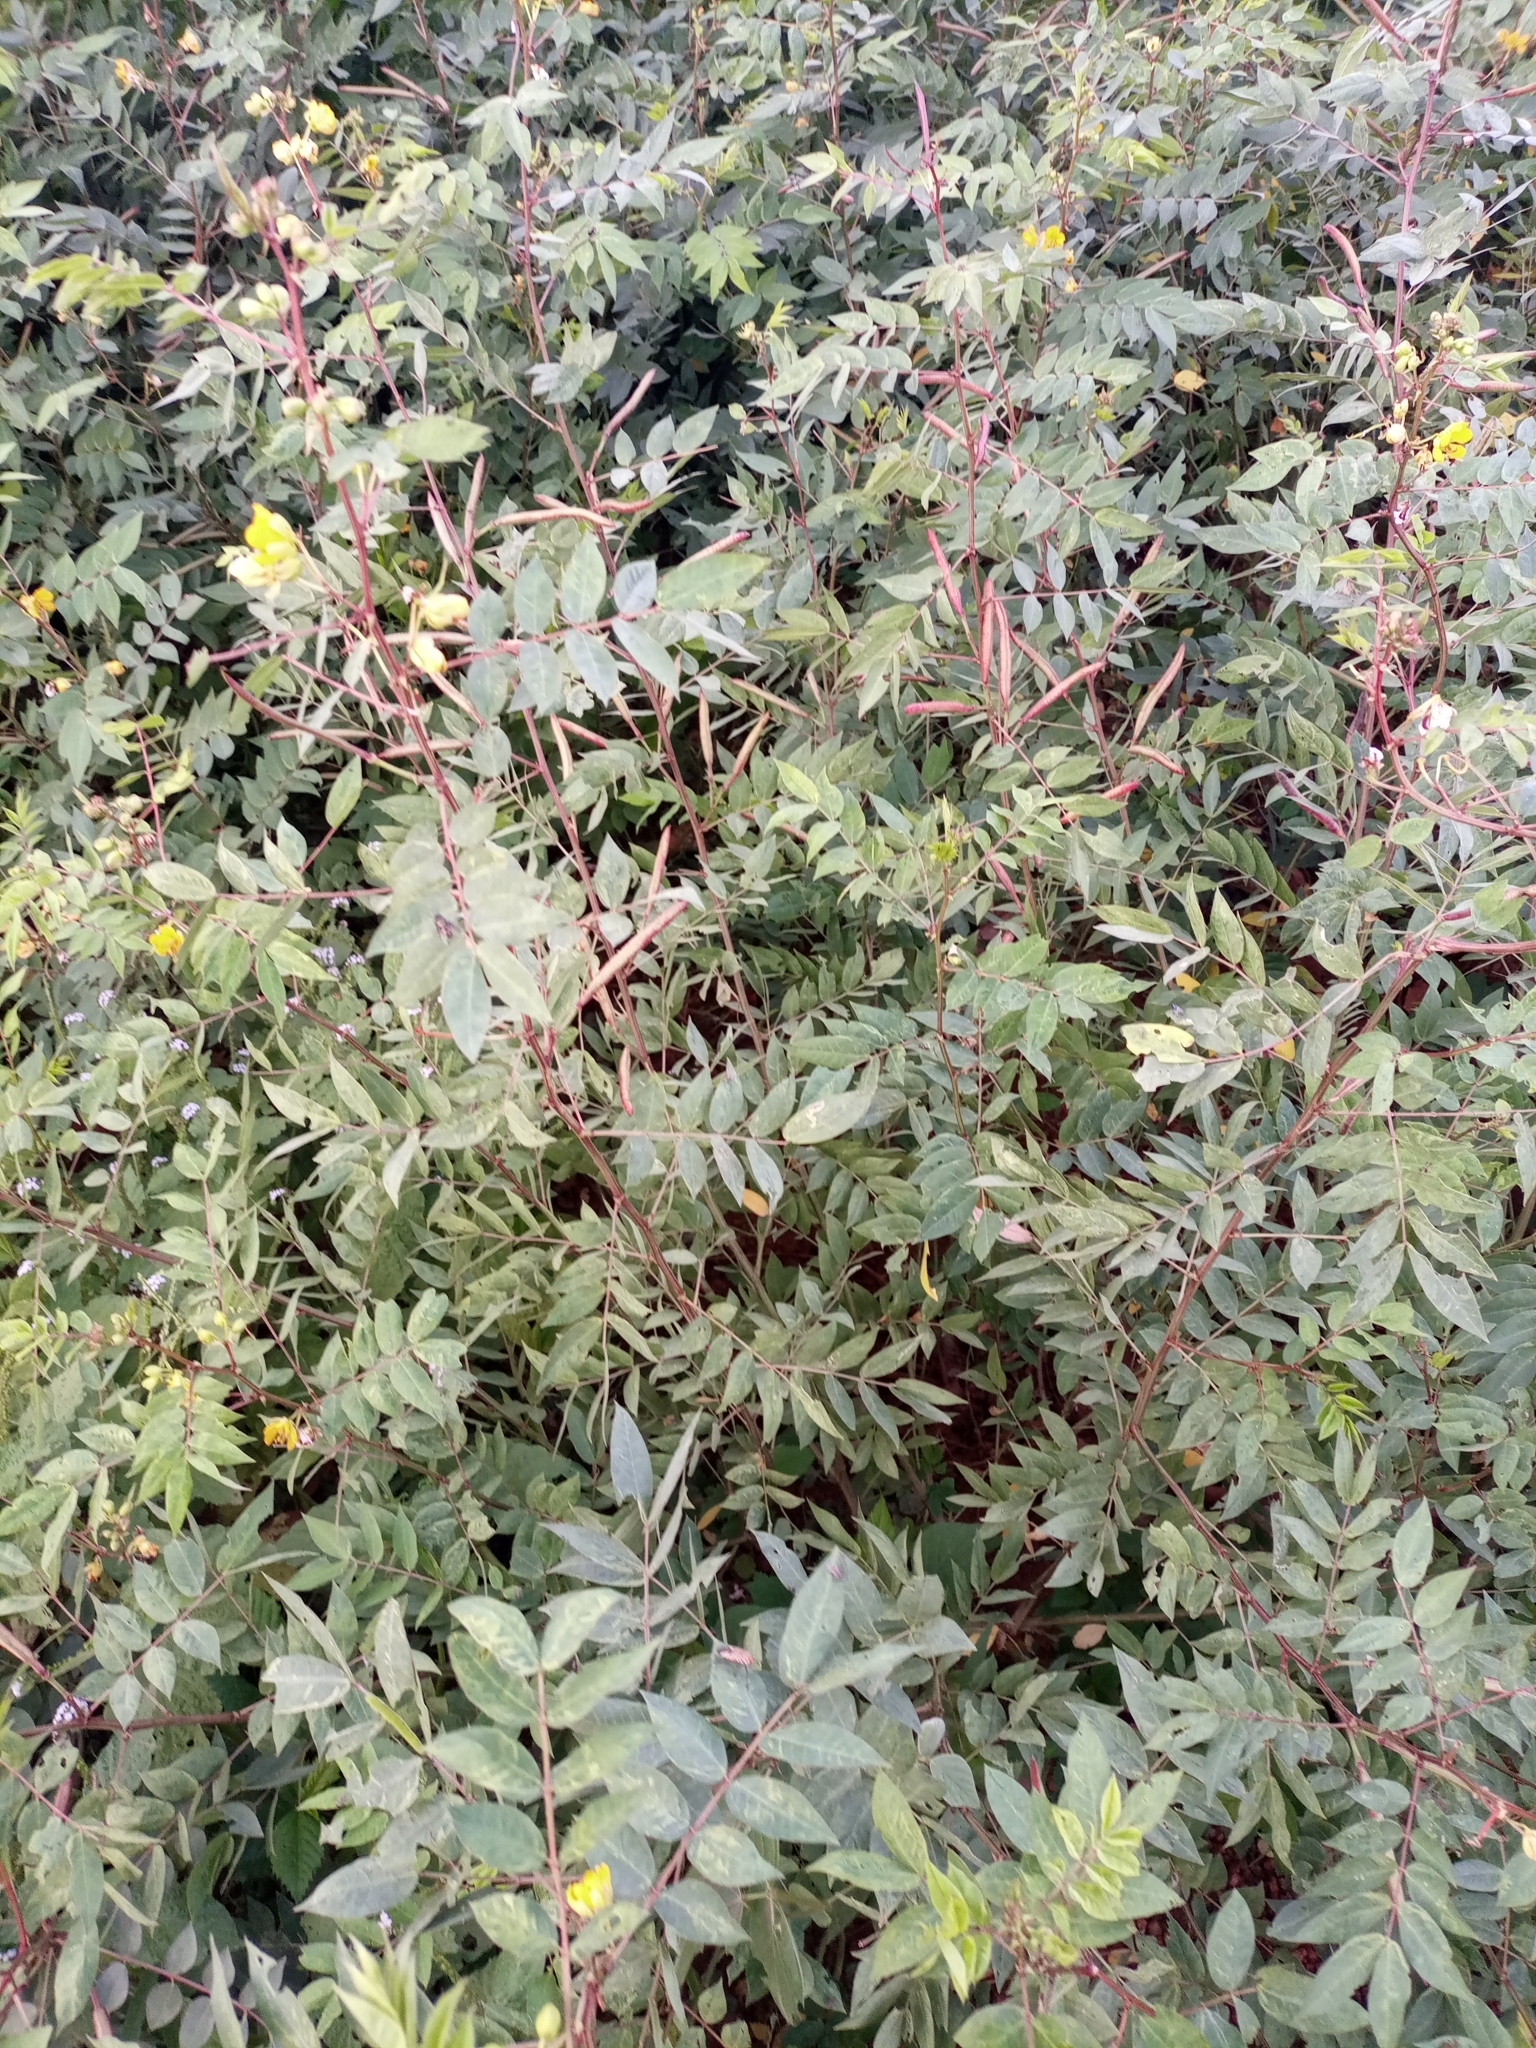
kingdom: Plantae
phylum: Tracheophyta
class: Magnoliopsida
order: Fabales
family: Fabaceae
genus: Senna
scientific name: Senna occidentalis
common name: Septicweed
